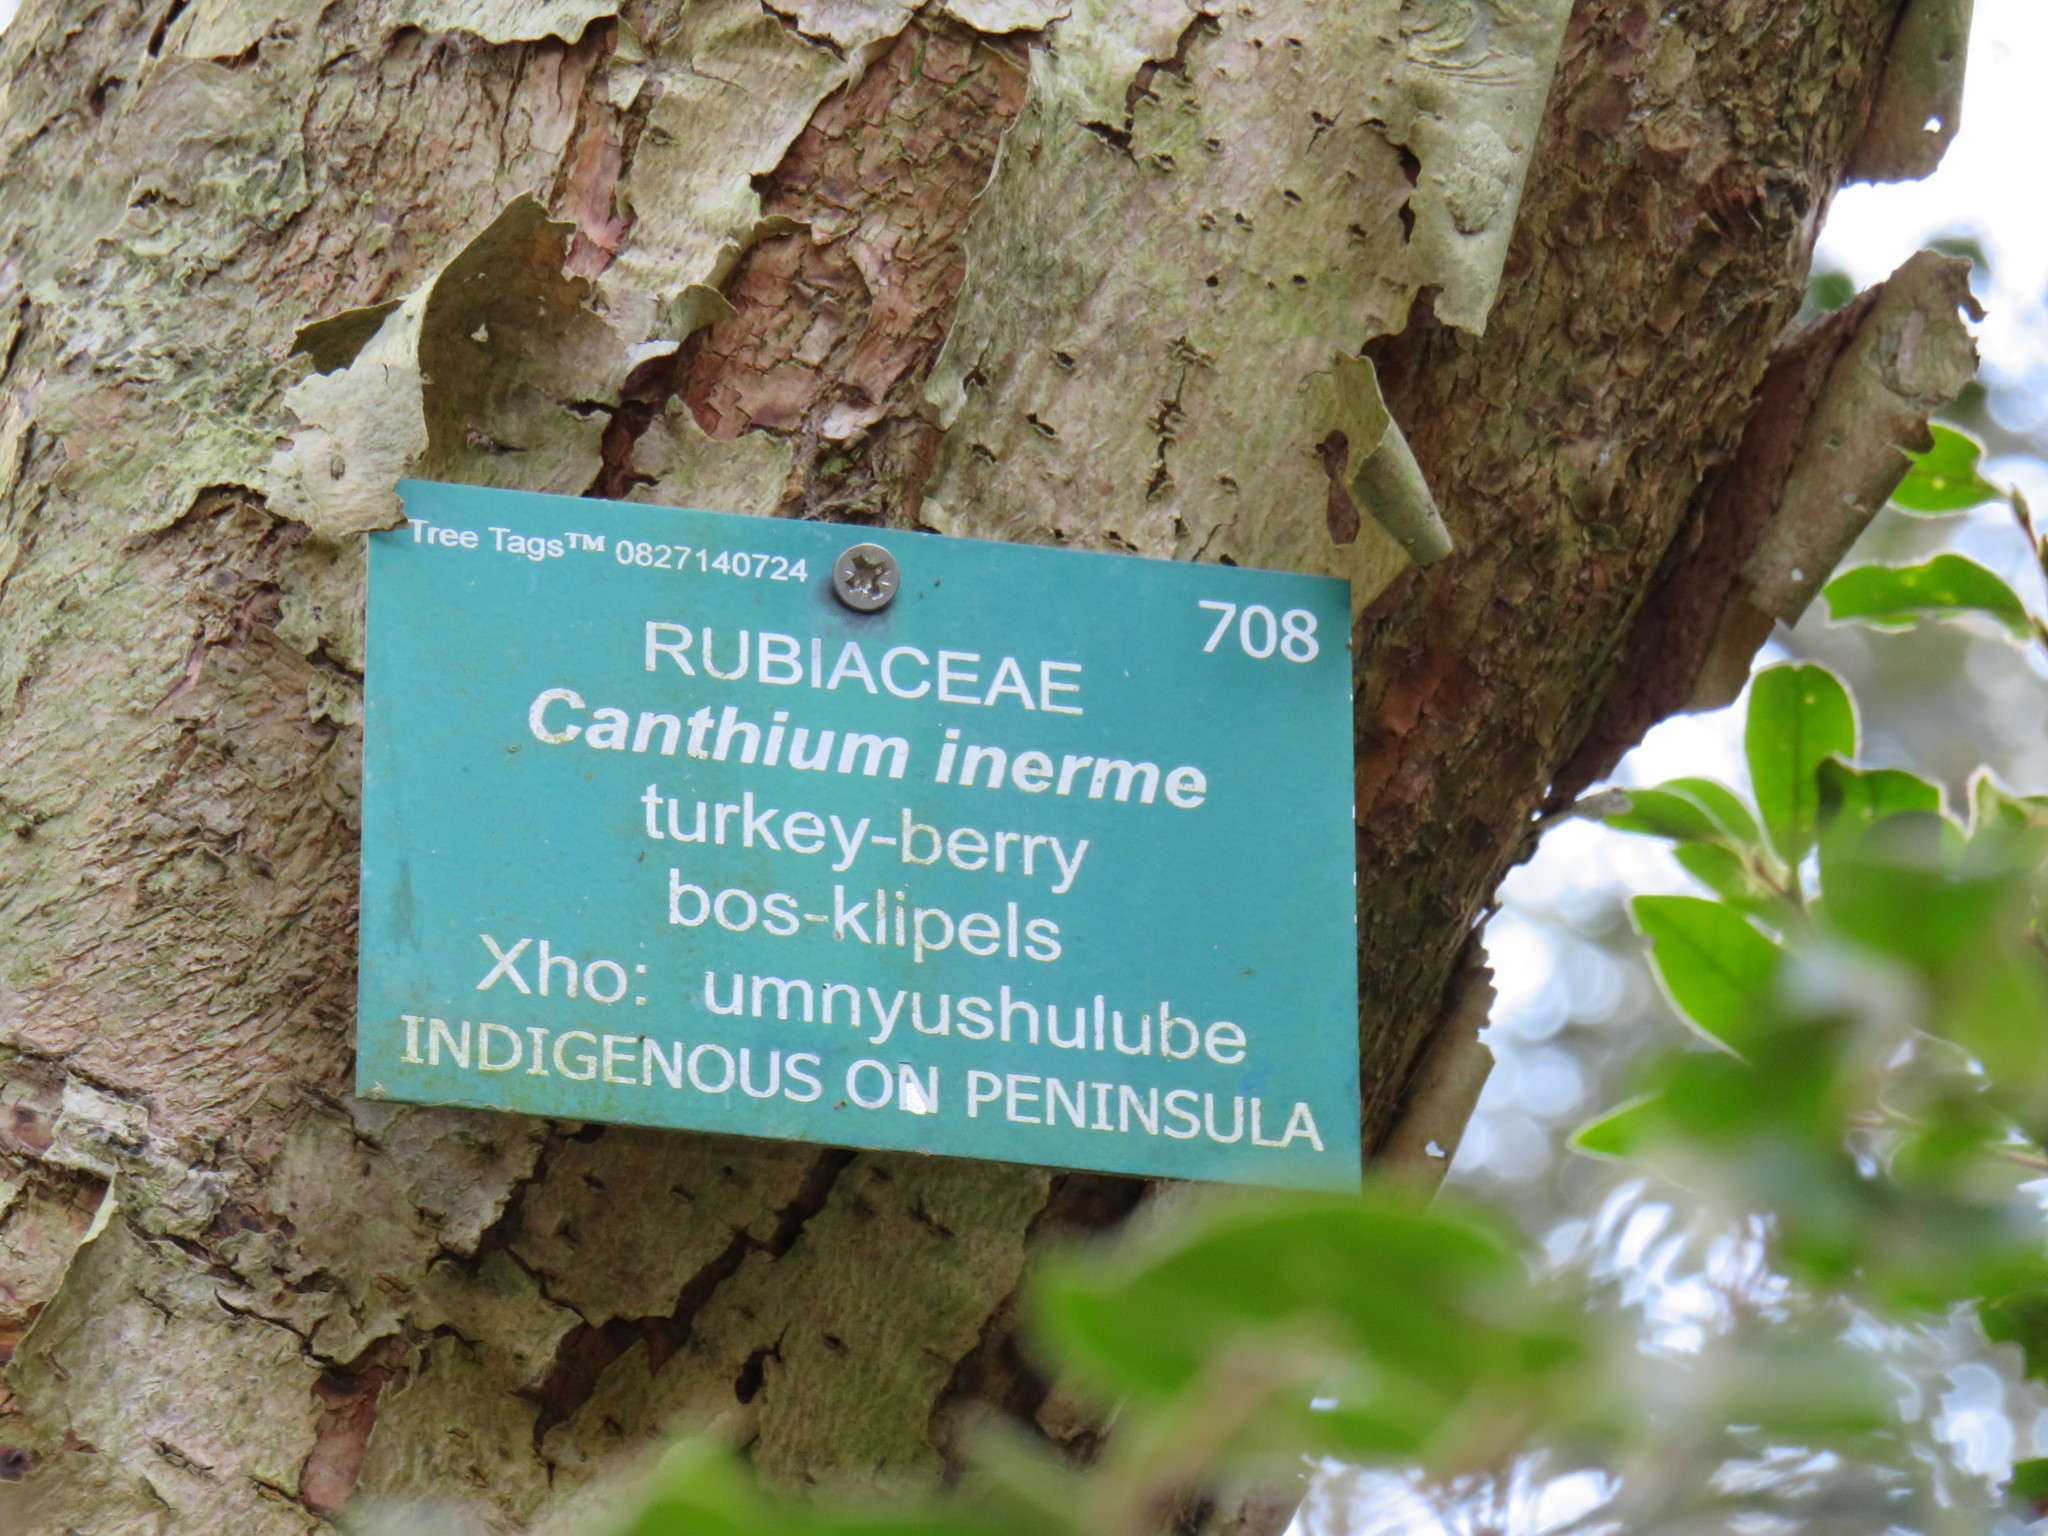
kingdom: Plantae
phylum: Tracheophyta
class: Magnoliopsida
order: Gentianales
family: Rubiaceae
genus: Canthium
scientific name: Canthium inerme
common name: Unarmed turkey-berry
